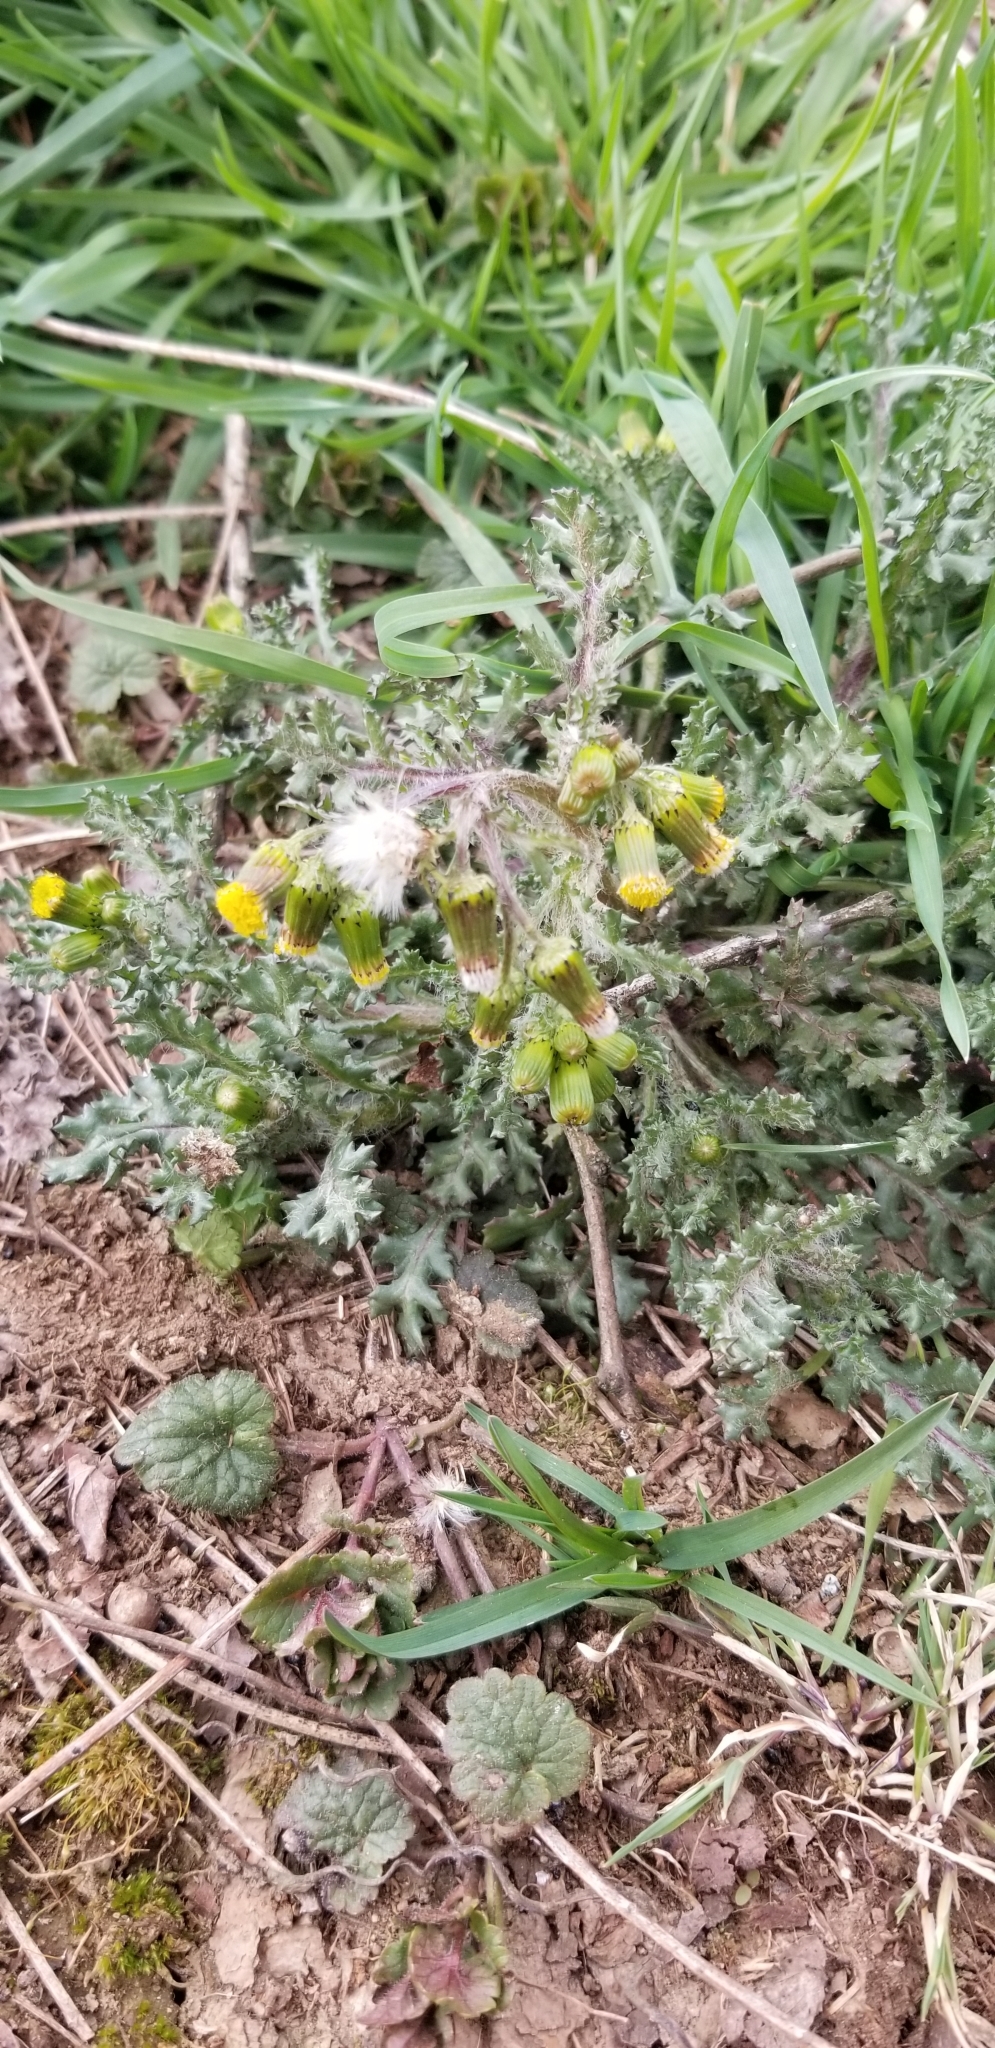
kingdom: Plantae
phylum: Tracheophyta
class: Magnoliopsida
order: Asterales
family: Asteraceae
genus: Senecio
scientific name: Senecio vulgaris
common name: Old-man-in-the-spring
